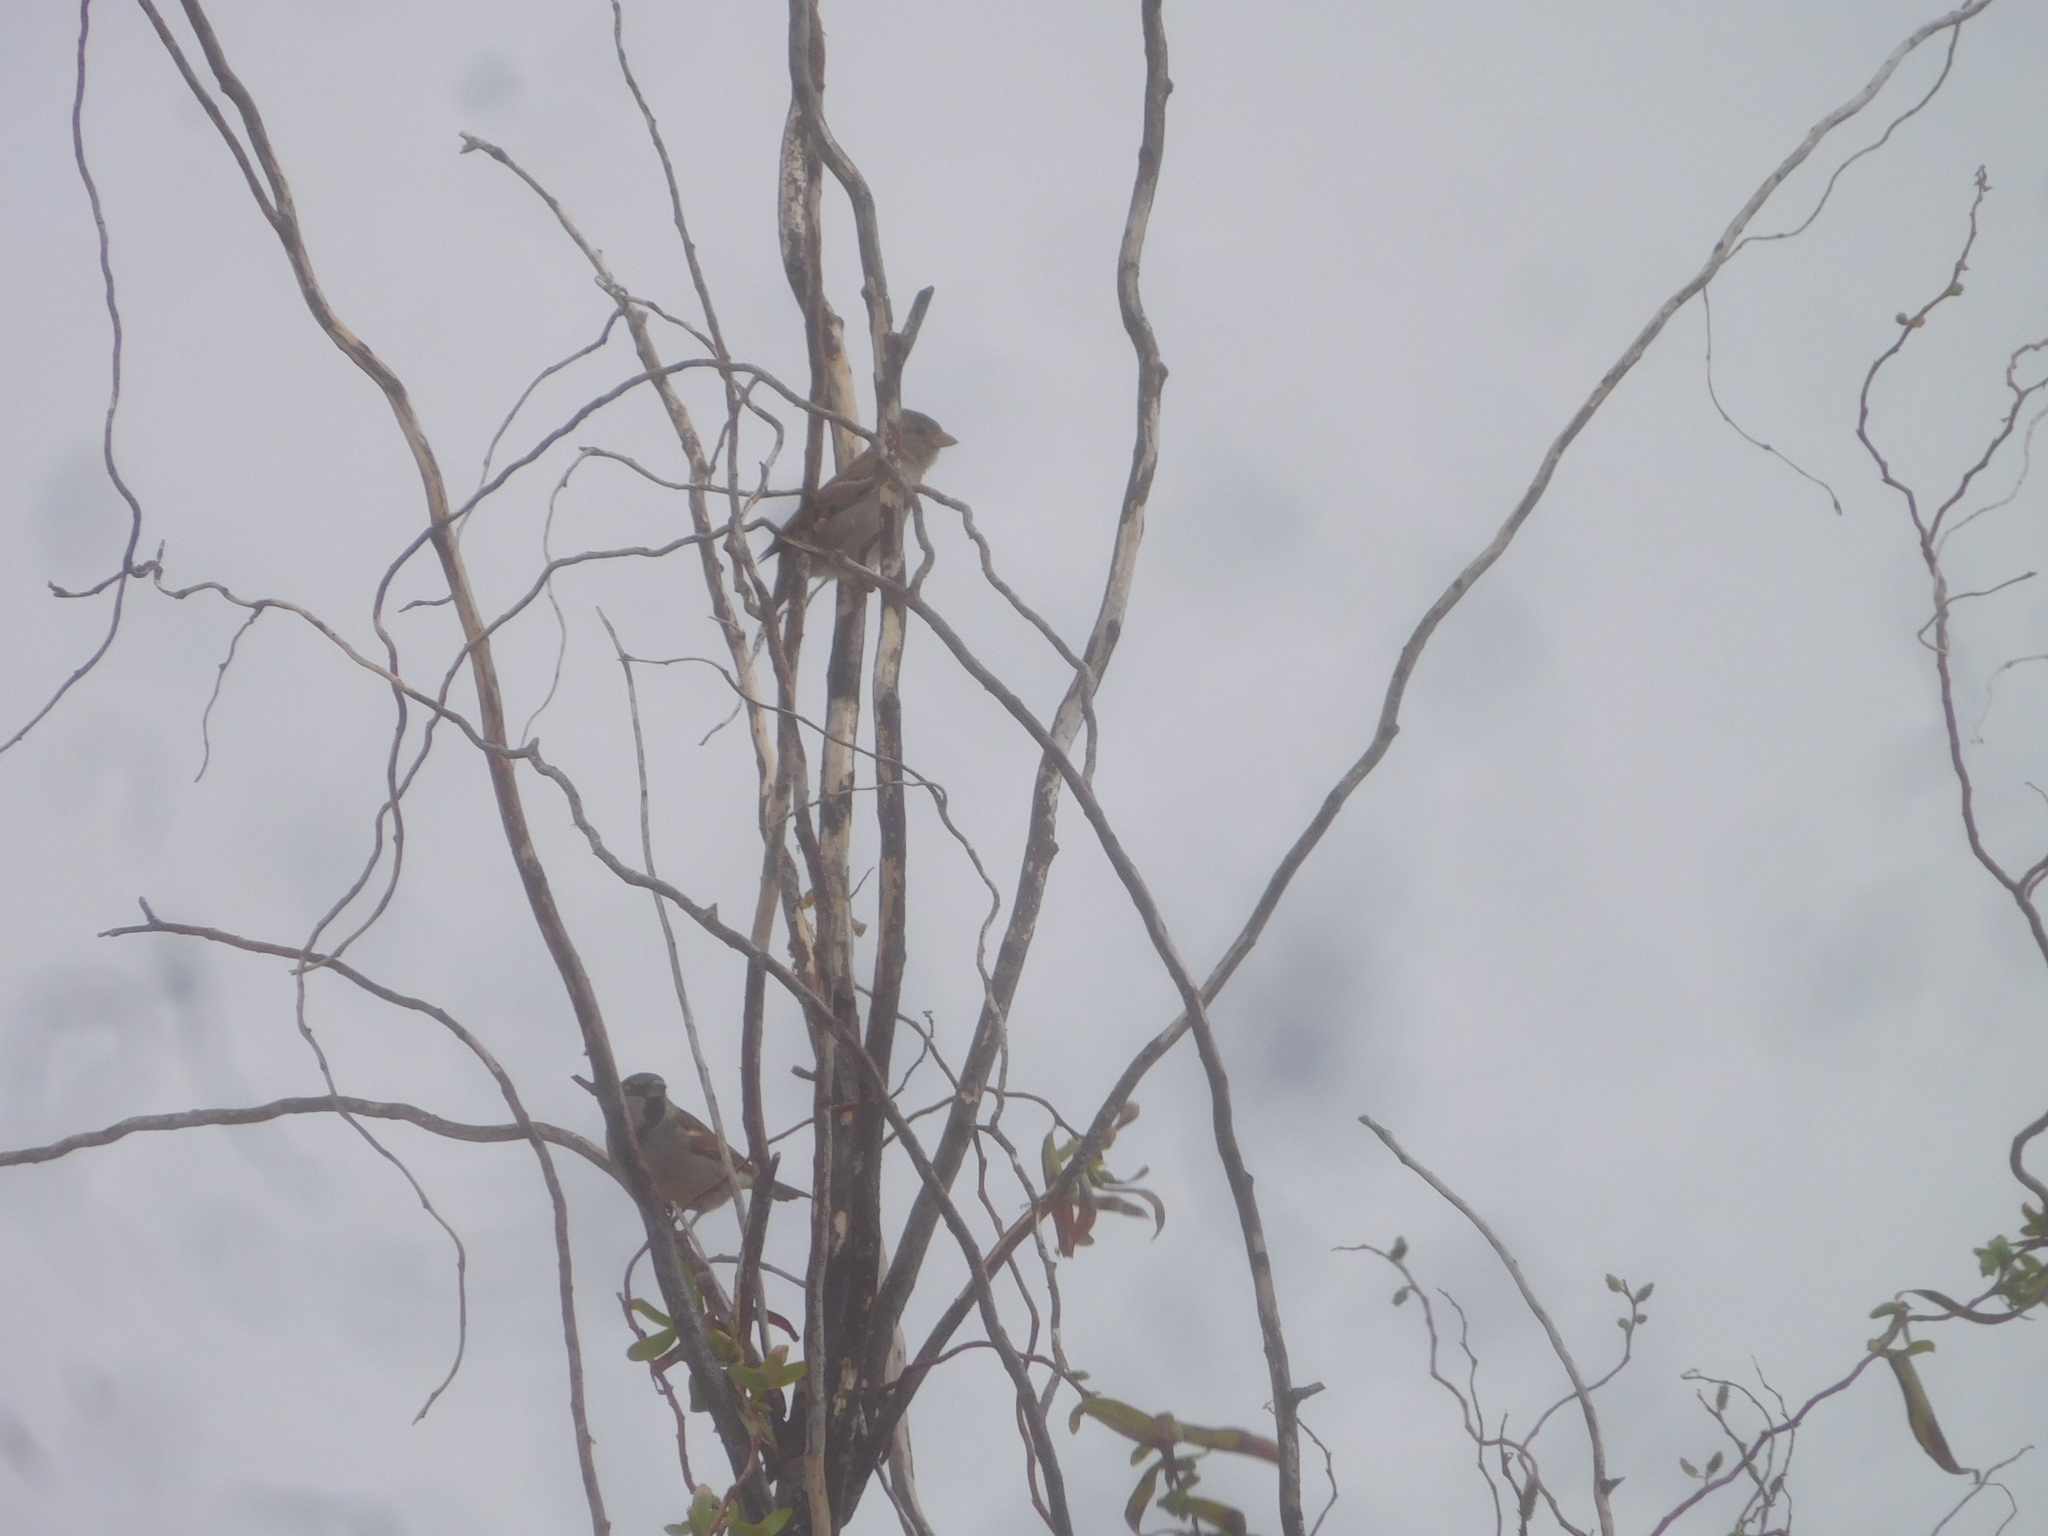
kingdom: Animalia
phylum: Chordata
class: Aves
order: Passeriformes
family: Passeridae
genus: Passer
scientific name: Passer domesticus
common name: House sparrow
